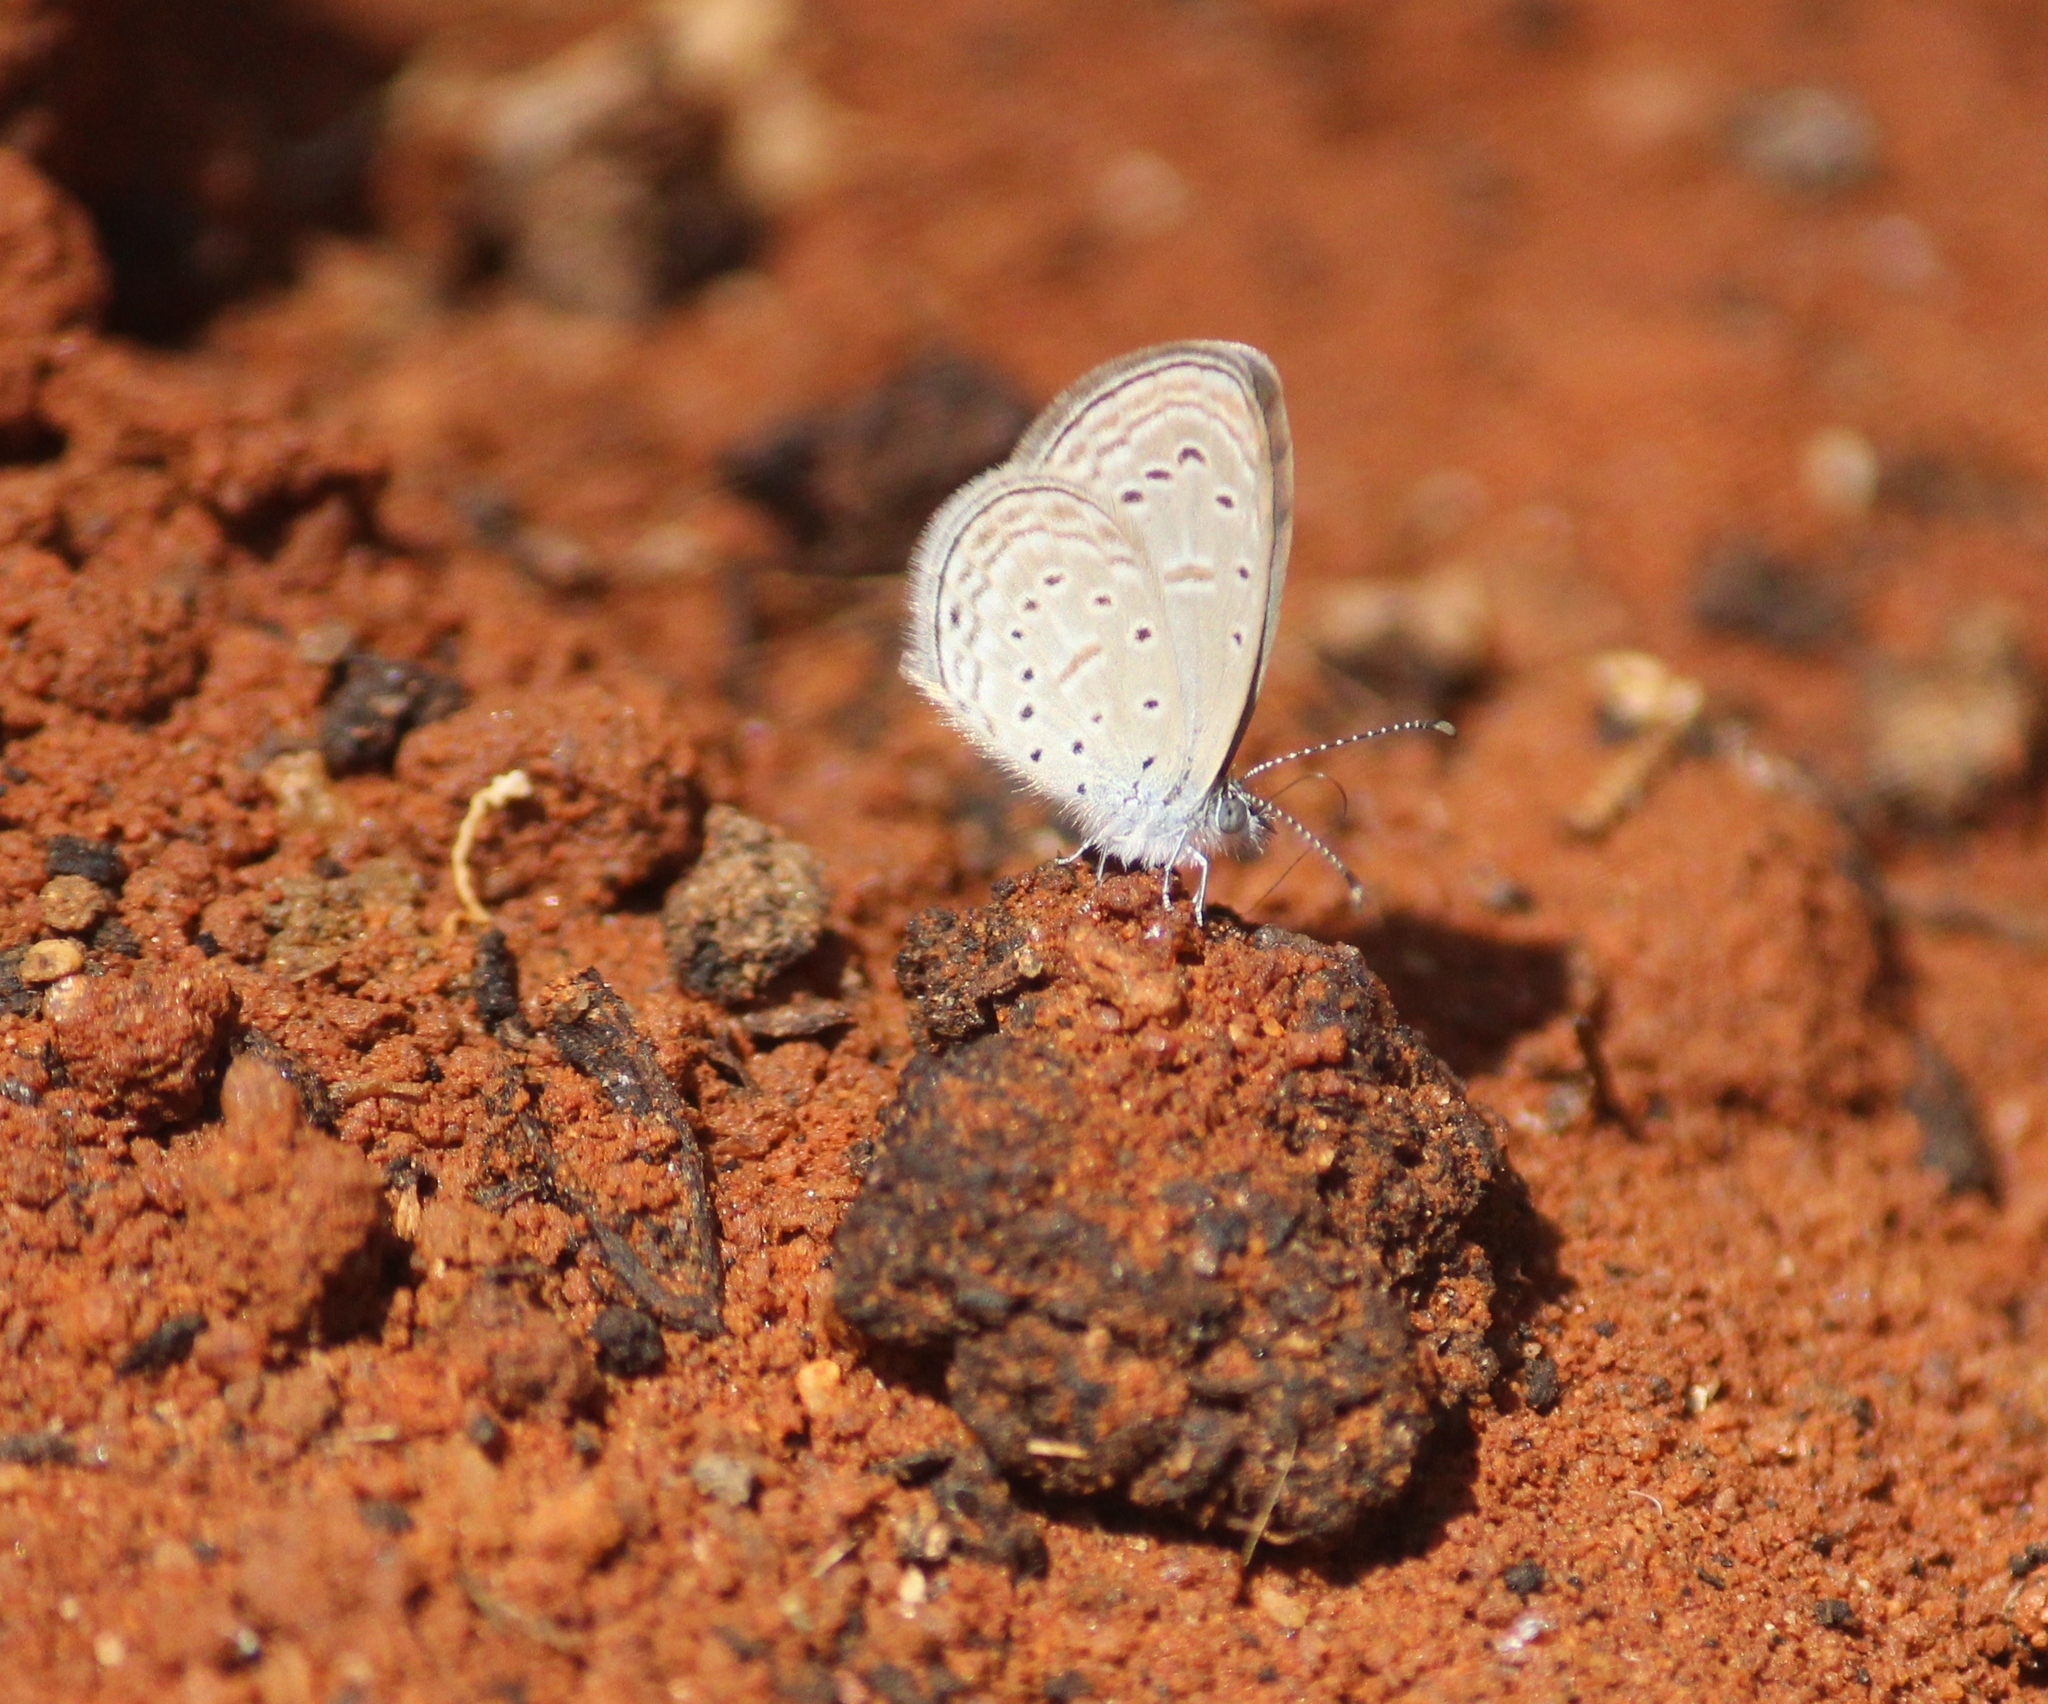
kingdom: Animalia
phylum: Arthropoda
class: Insecta
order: Lepidoptera
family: Lycaenidae
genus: Zizula
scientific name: Zizula hylax
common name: Gaika blue
